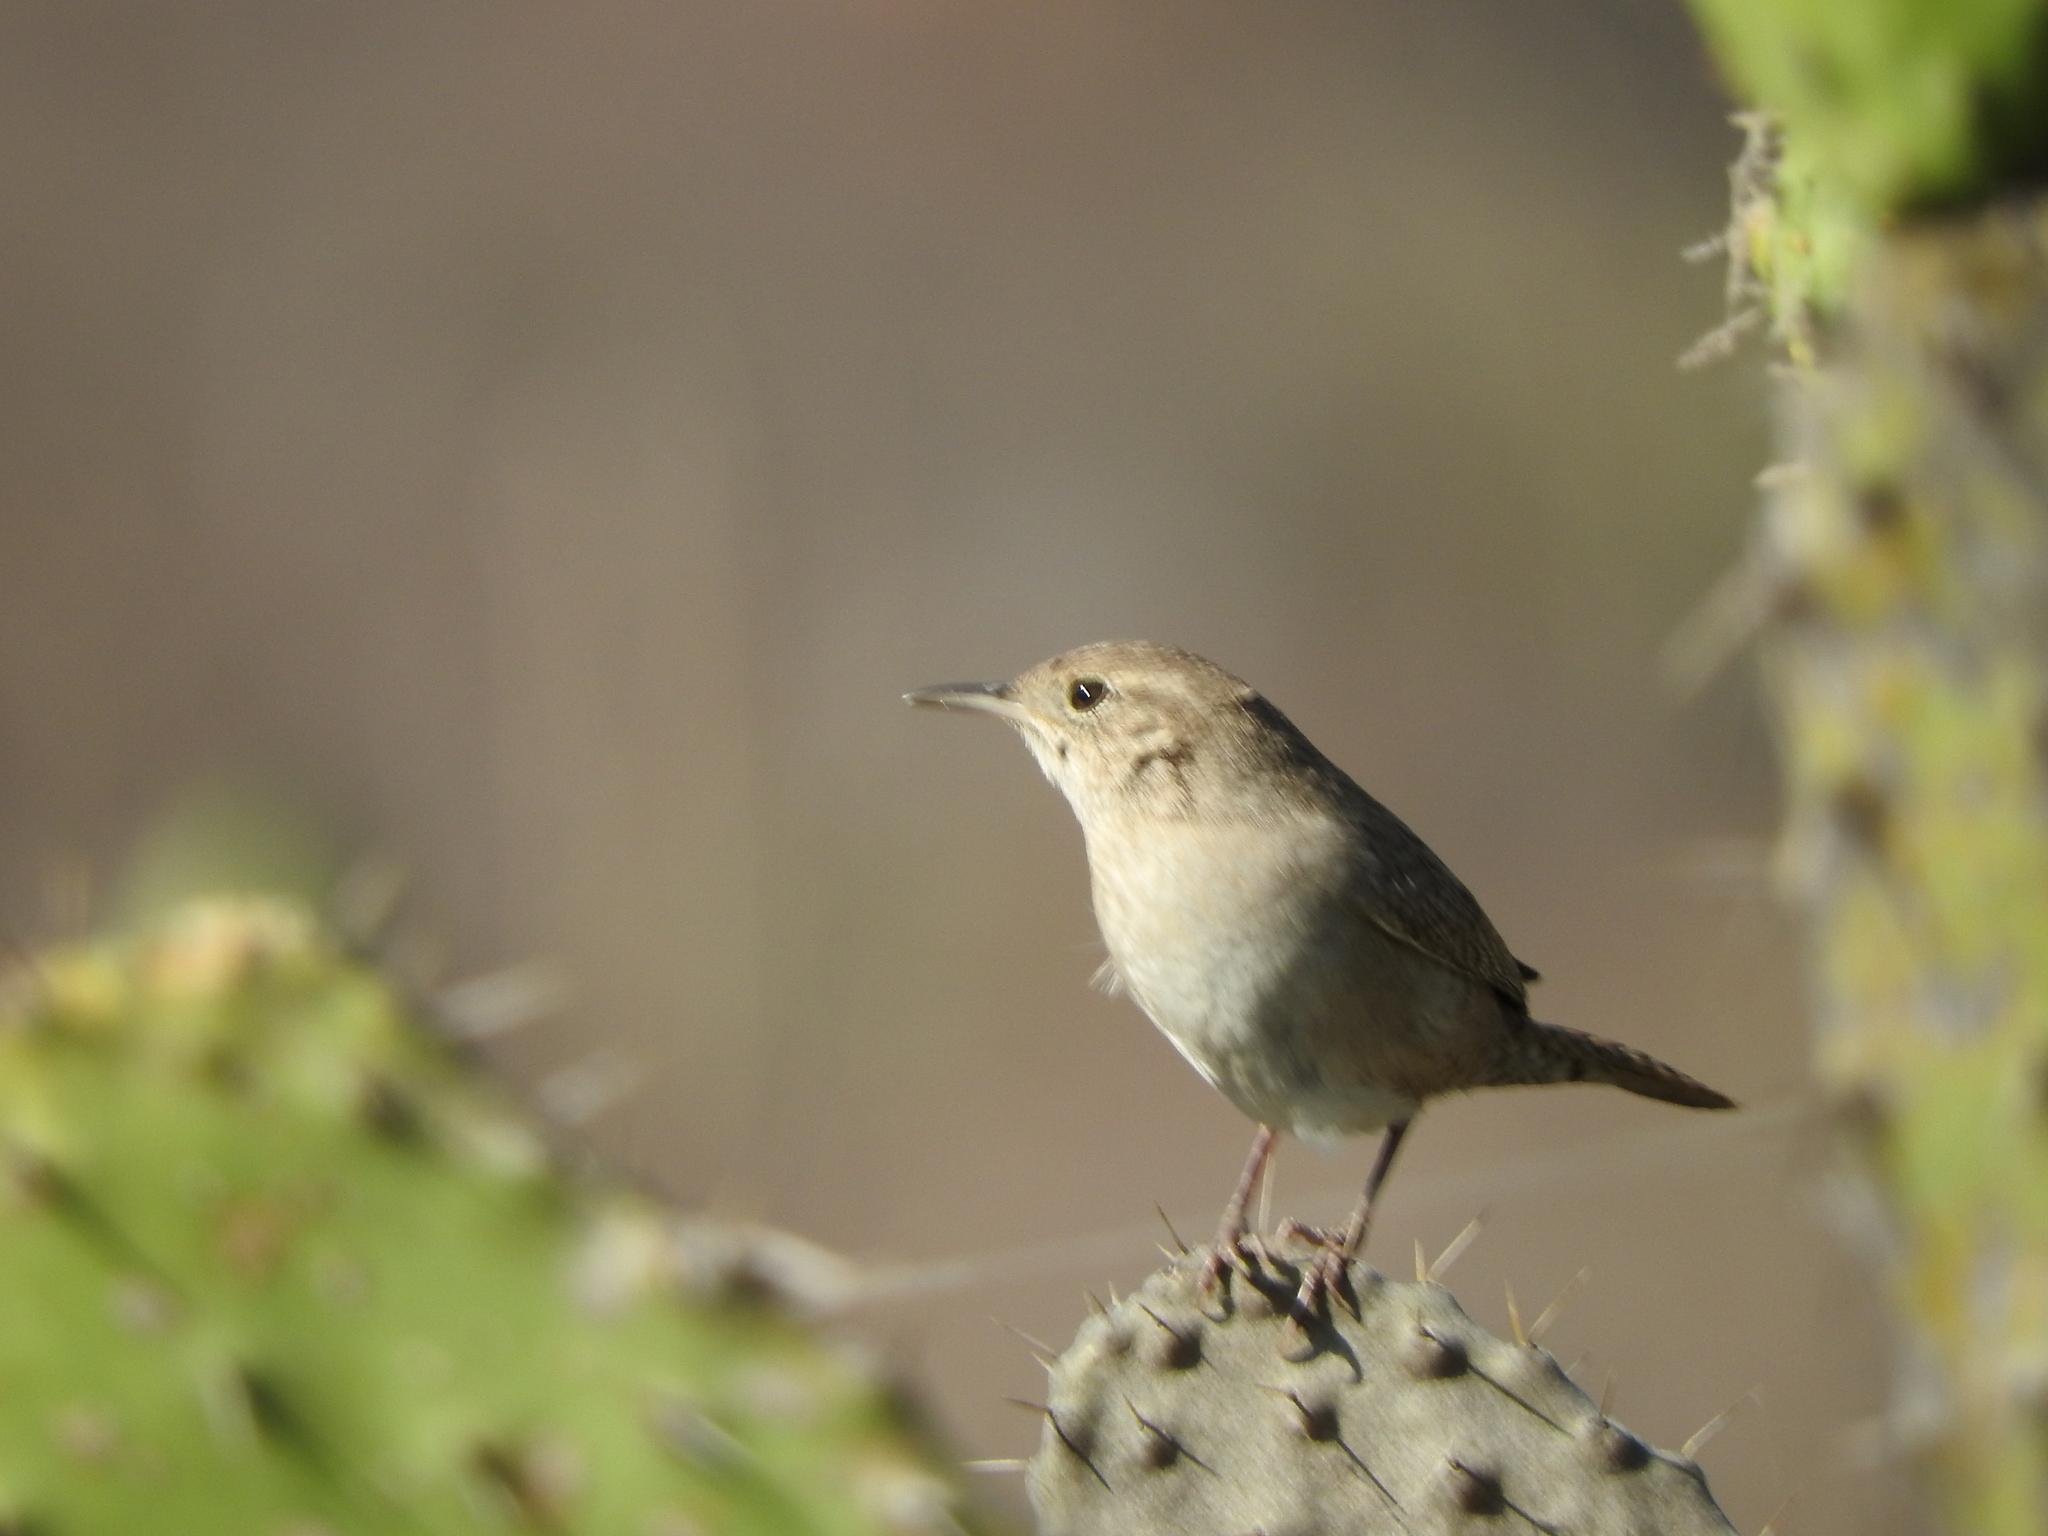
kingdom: Animalia
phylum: Chordata
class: Aves
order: Passeriformes
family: Troglodytidae
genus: Troglodytes
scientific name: Troglodytes aedon
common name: House wren
